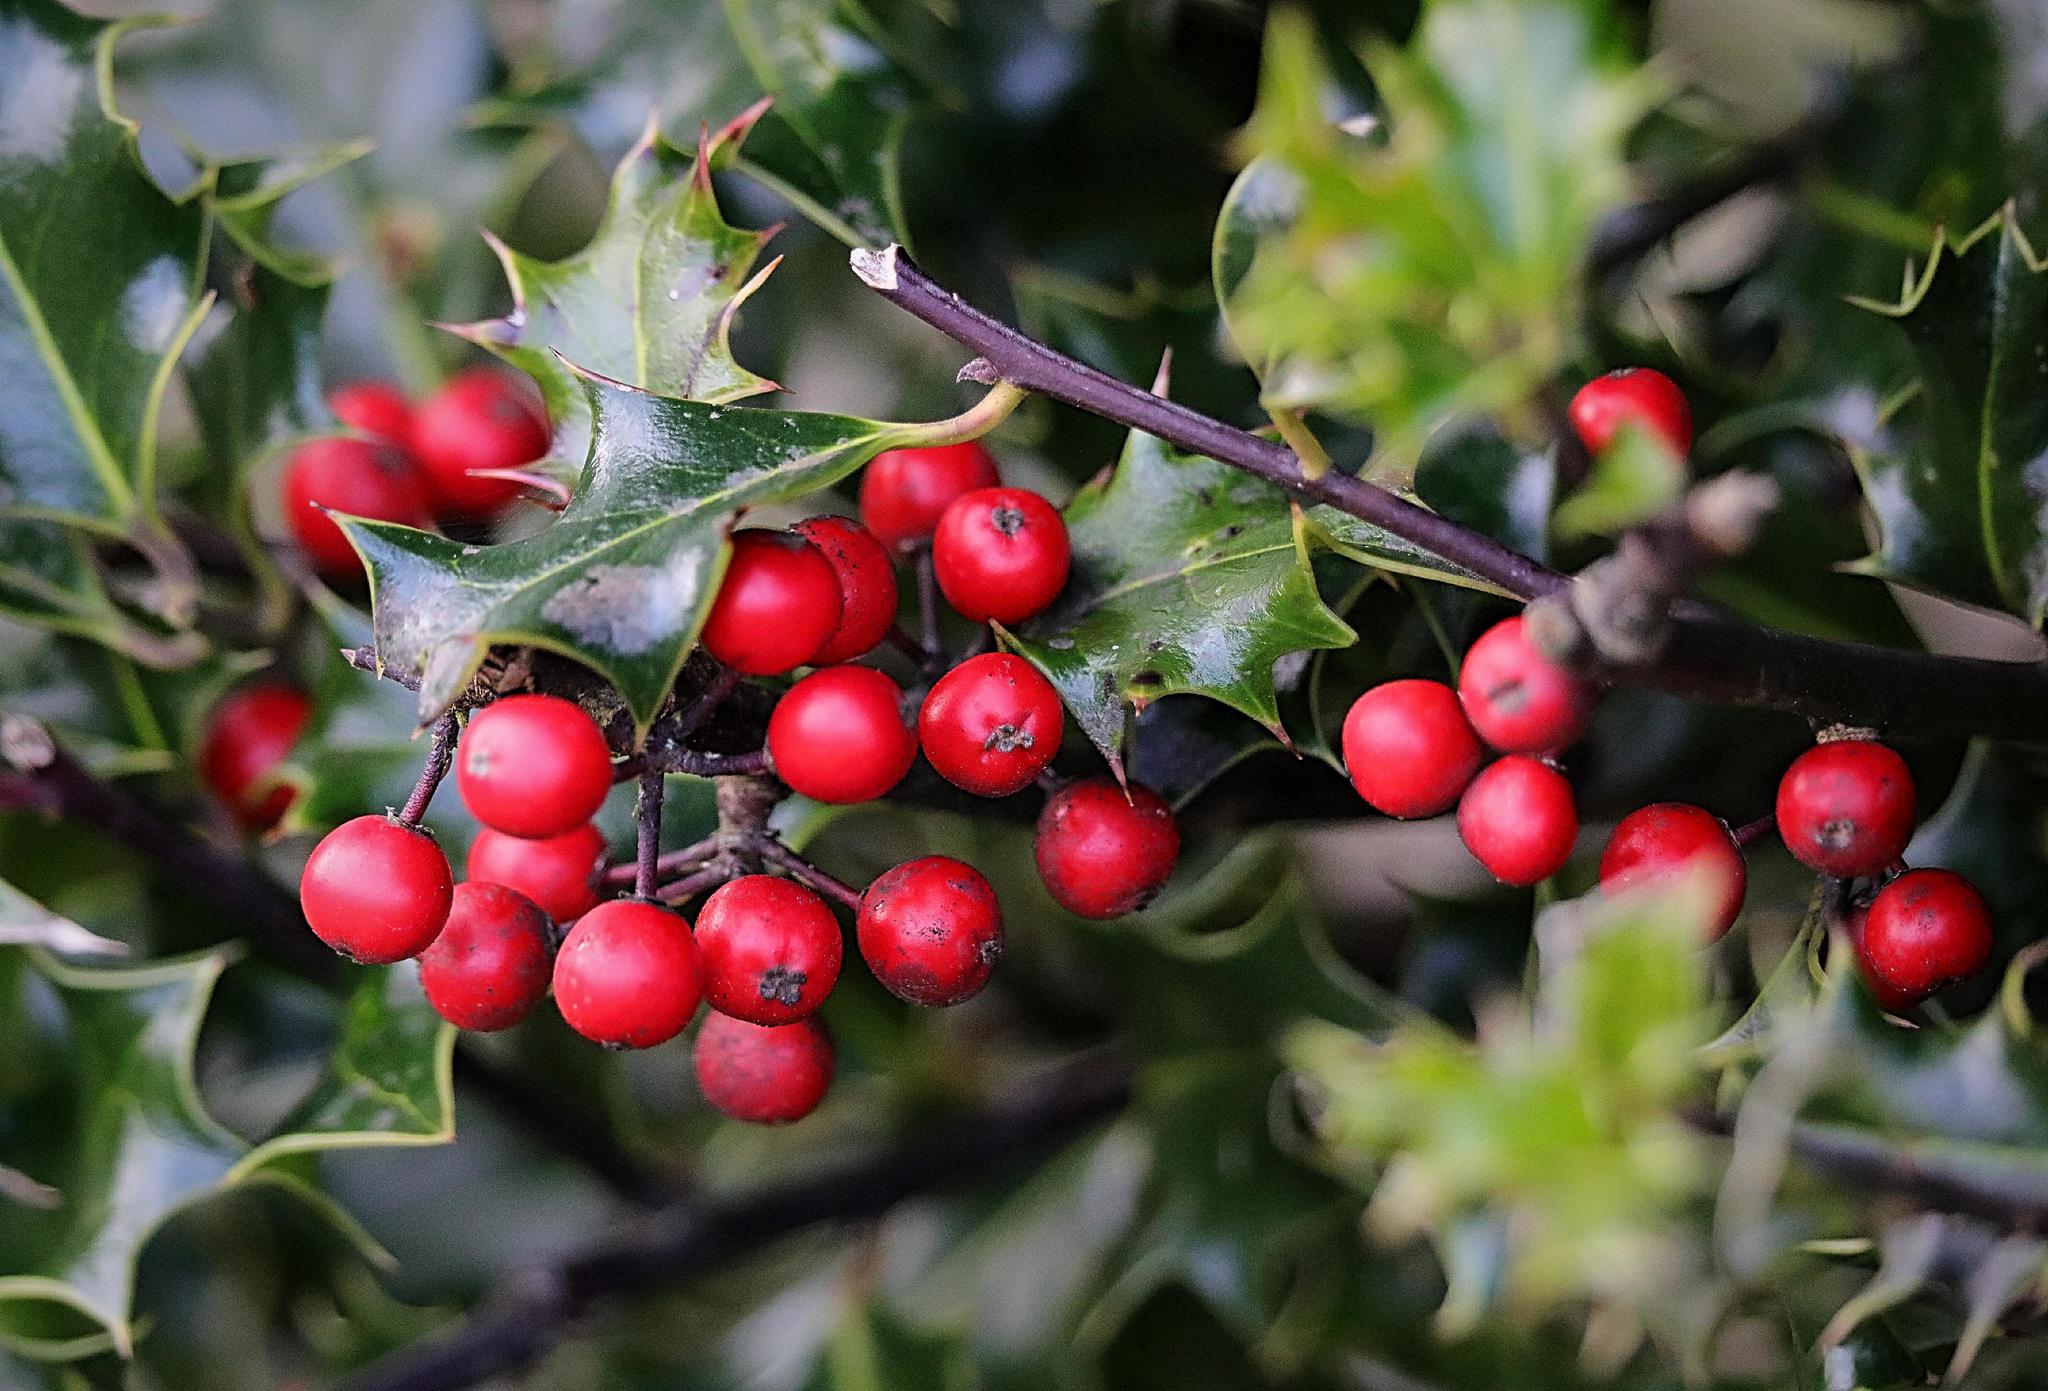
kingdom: Plantae
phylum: Tracheophyta
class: Magnoliopsida
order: Aquifoliales
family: Aquifoliaceae
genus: Ilex
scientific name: Ilex aquifolium
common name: English holly
